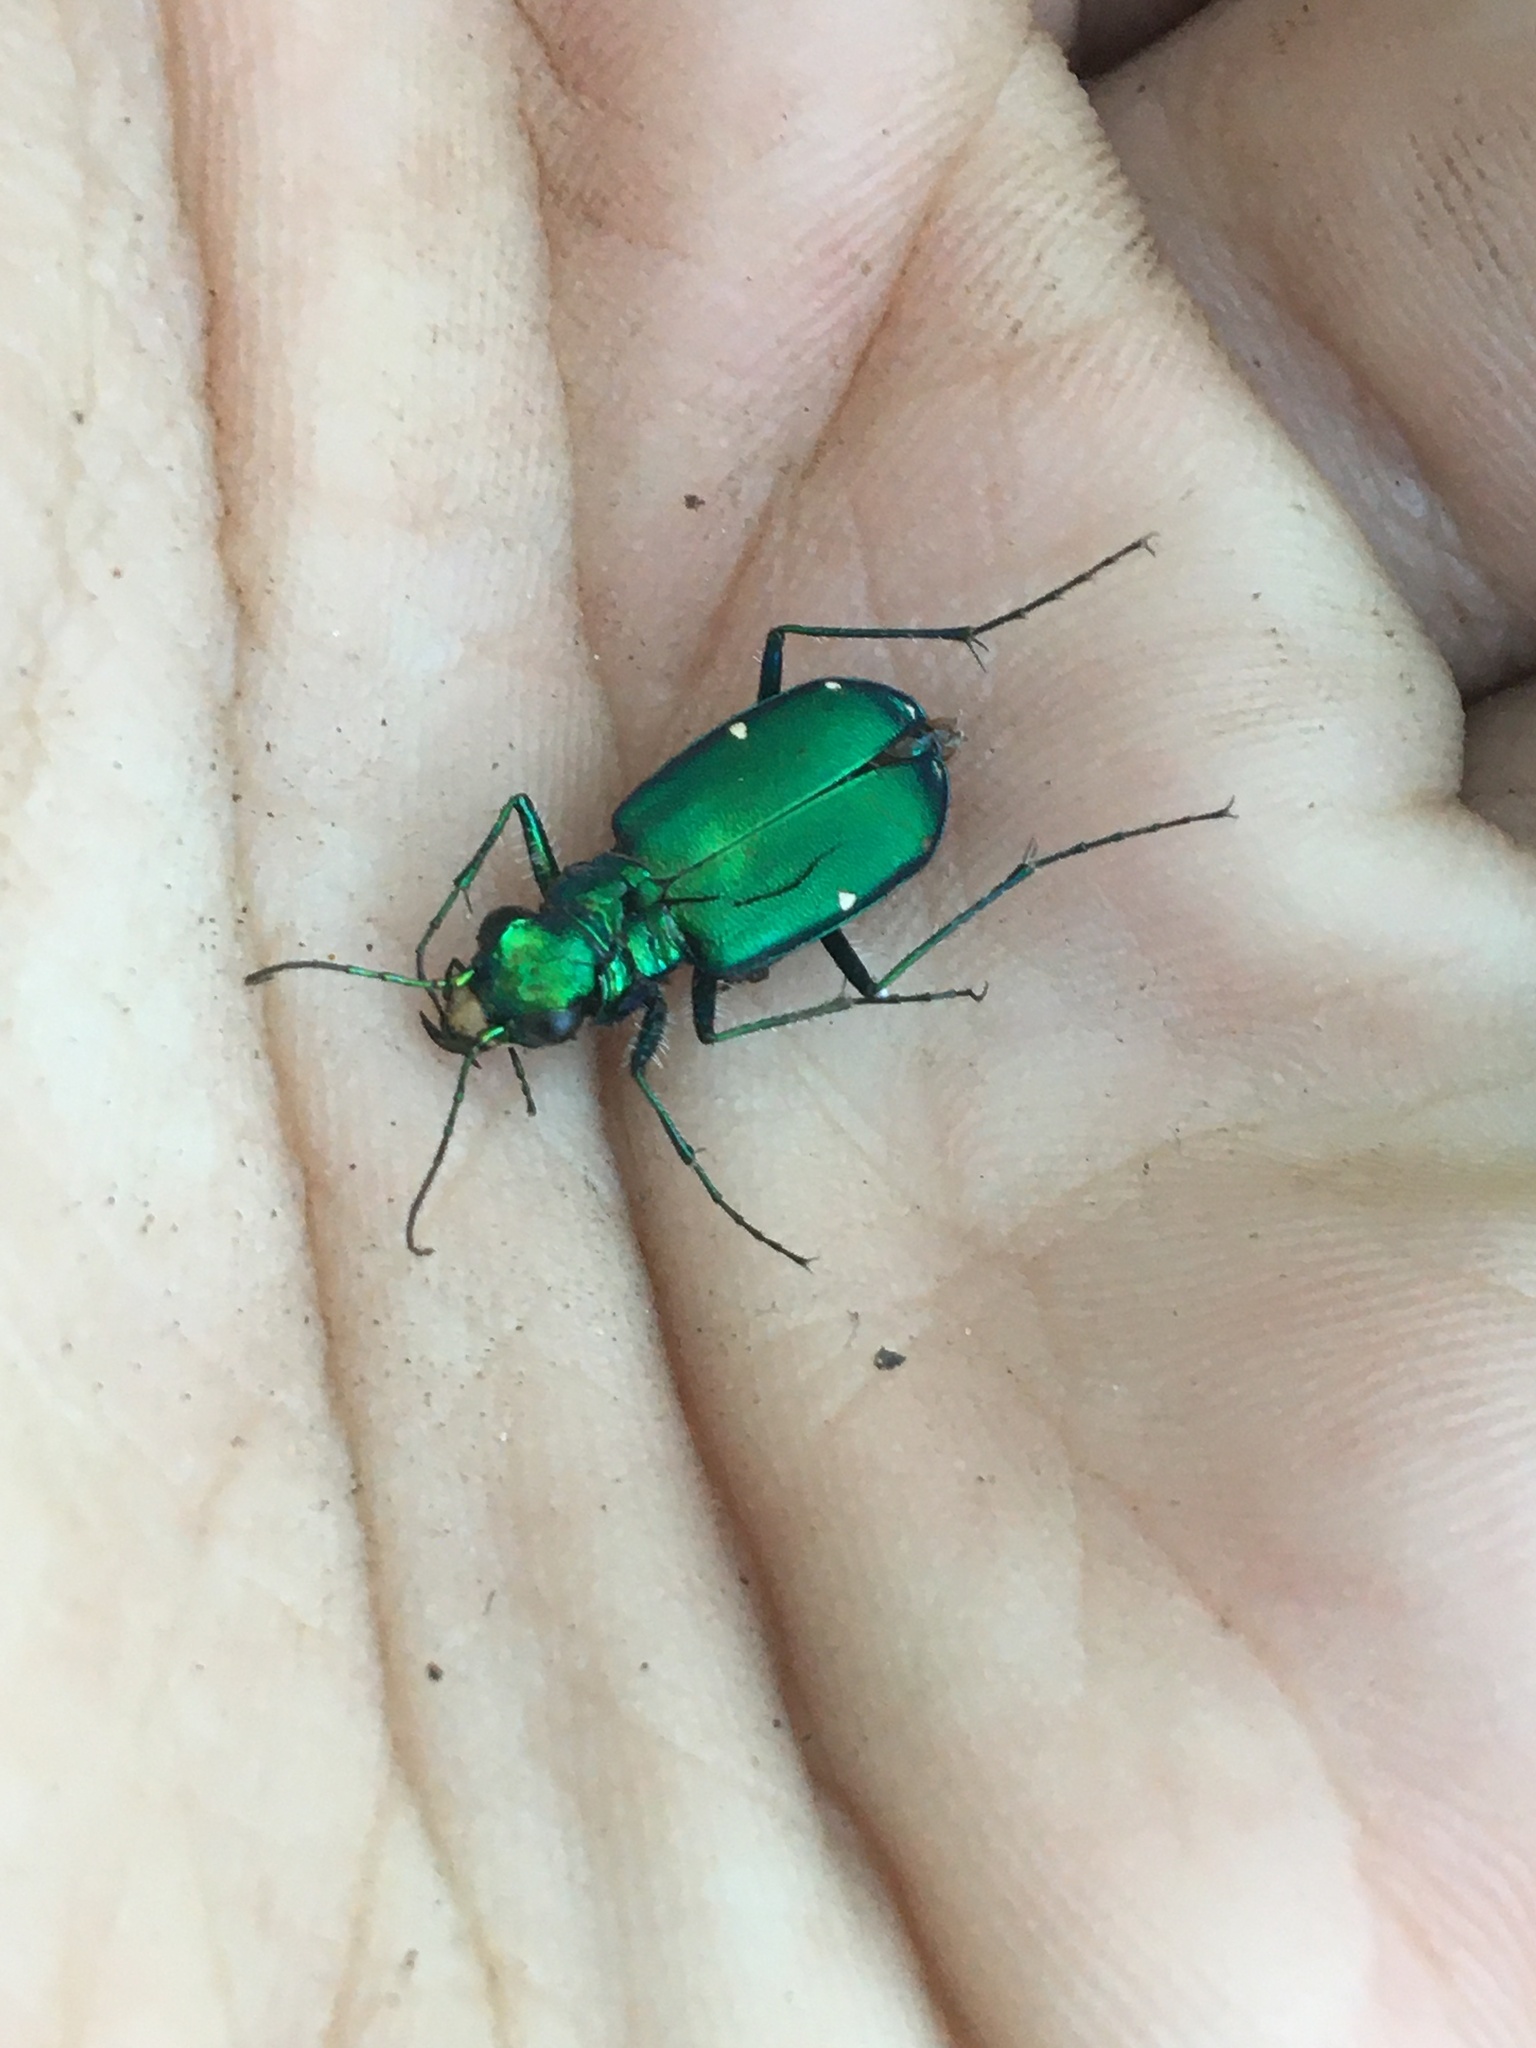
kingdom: Animalia
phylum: Arthropoda
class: Insecta
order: Coleoptera
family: Carabidae
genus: Cicindela
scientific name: Cicindela sexguttata
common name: Six-spotted tiger beetle
